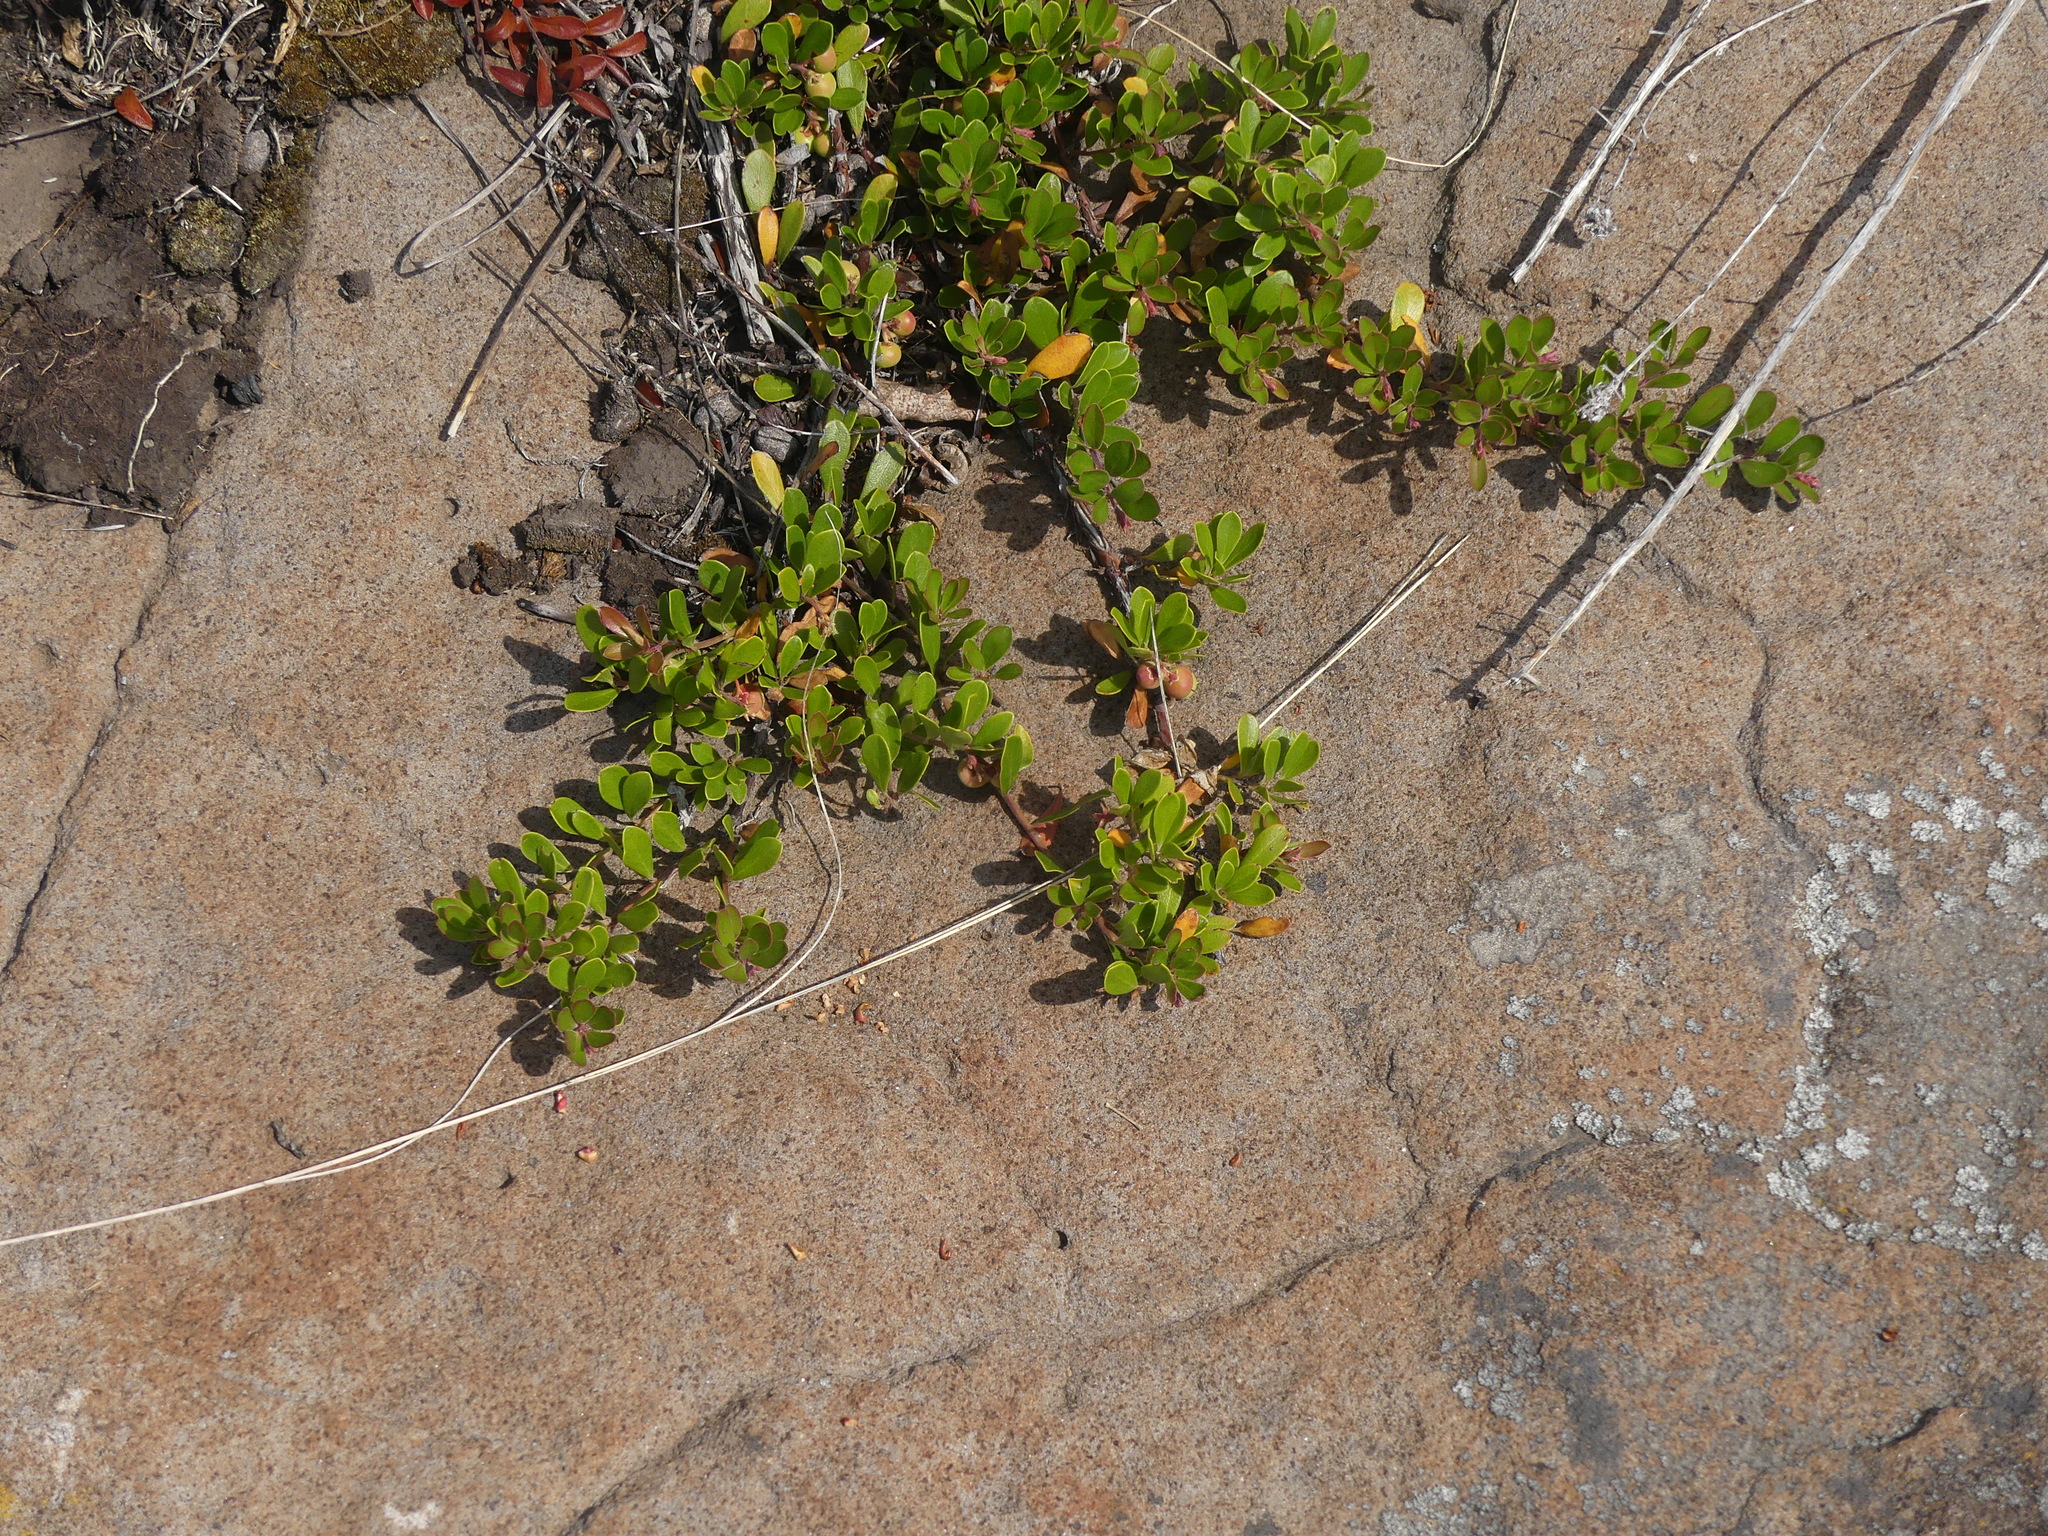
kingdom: Plantae
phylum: Tracheophyta
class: Magnoliopsida
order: Ericales
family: Ericaceae
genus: Arctostaphylos
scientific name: Arctostaphylos uva-ursi
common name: Bearberry
